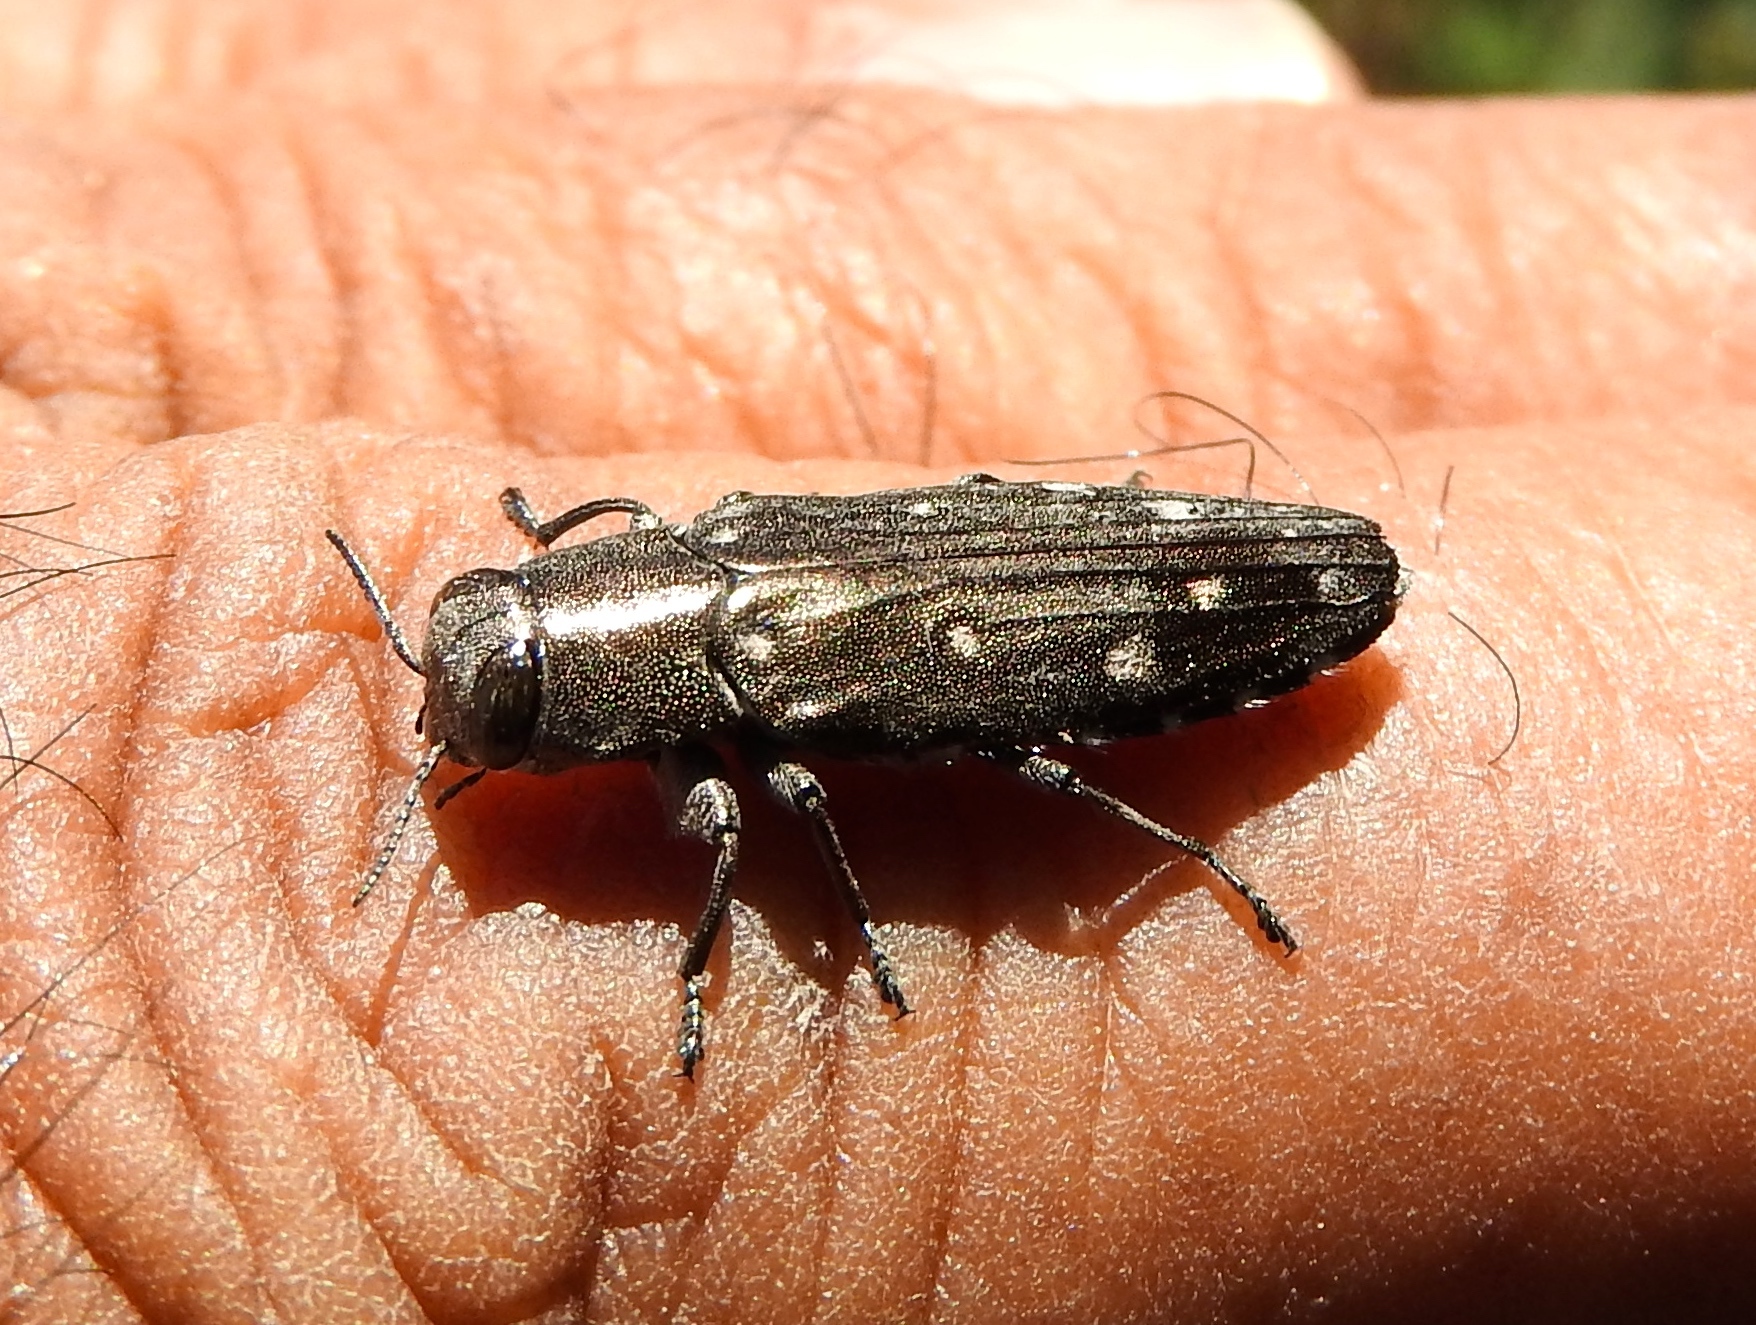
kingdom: Animalia
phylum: Arthropoda
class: Insecta
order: Coleoptera
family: Buprestidae
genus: Chrysobothris
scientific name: Chrysobothris
